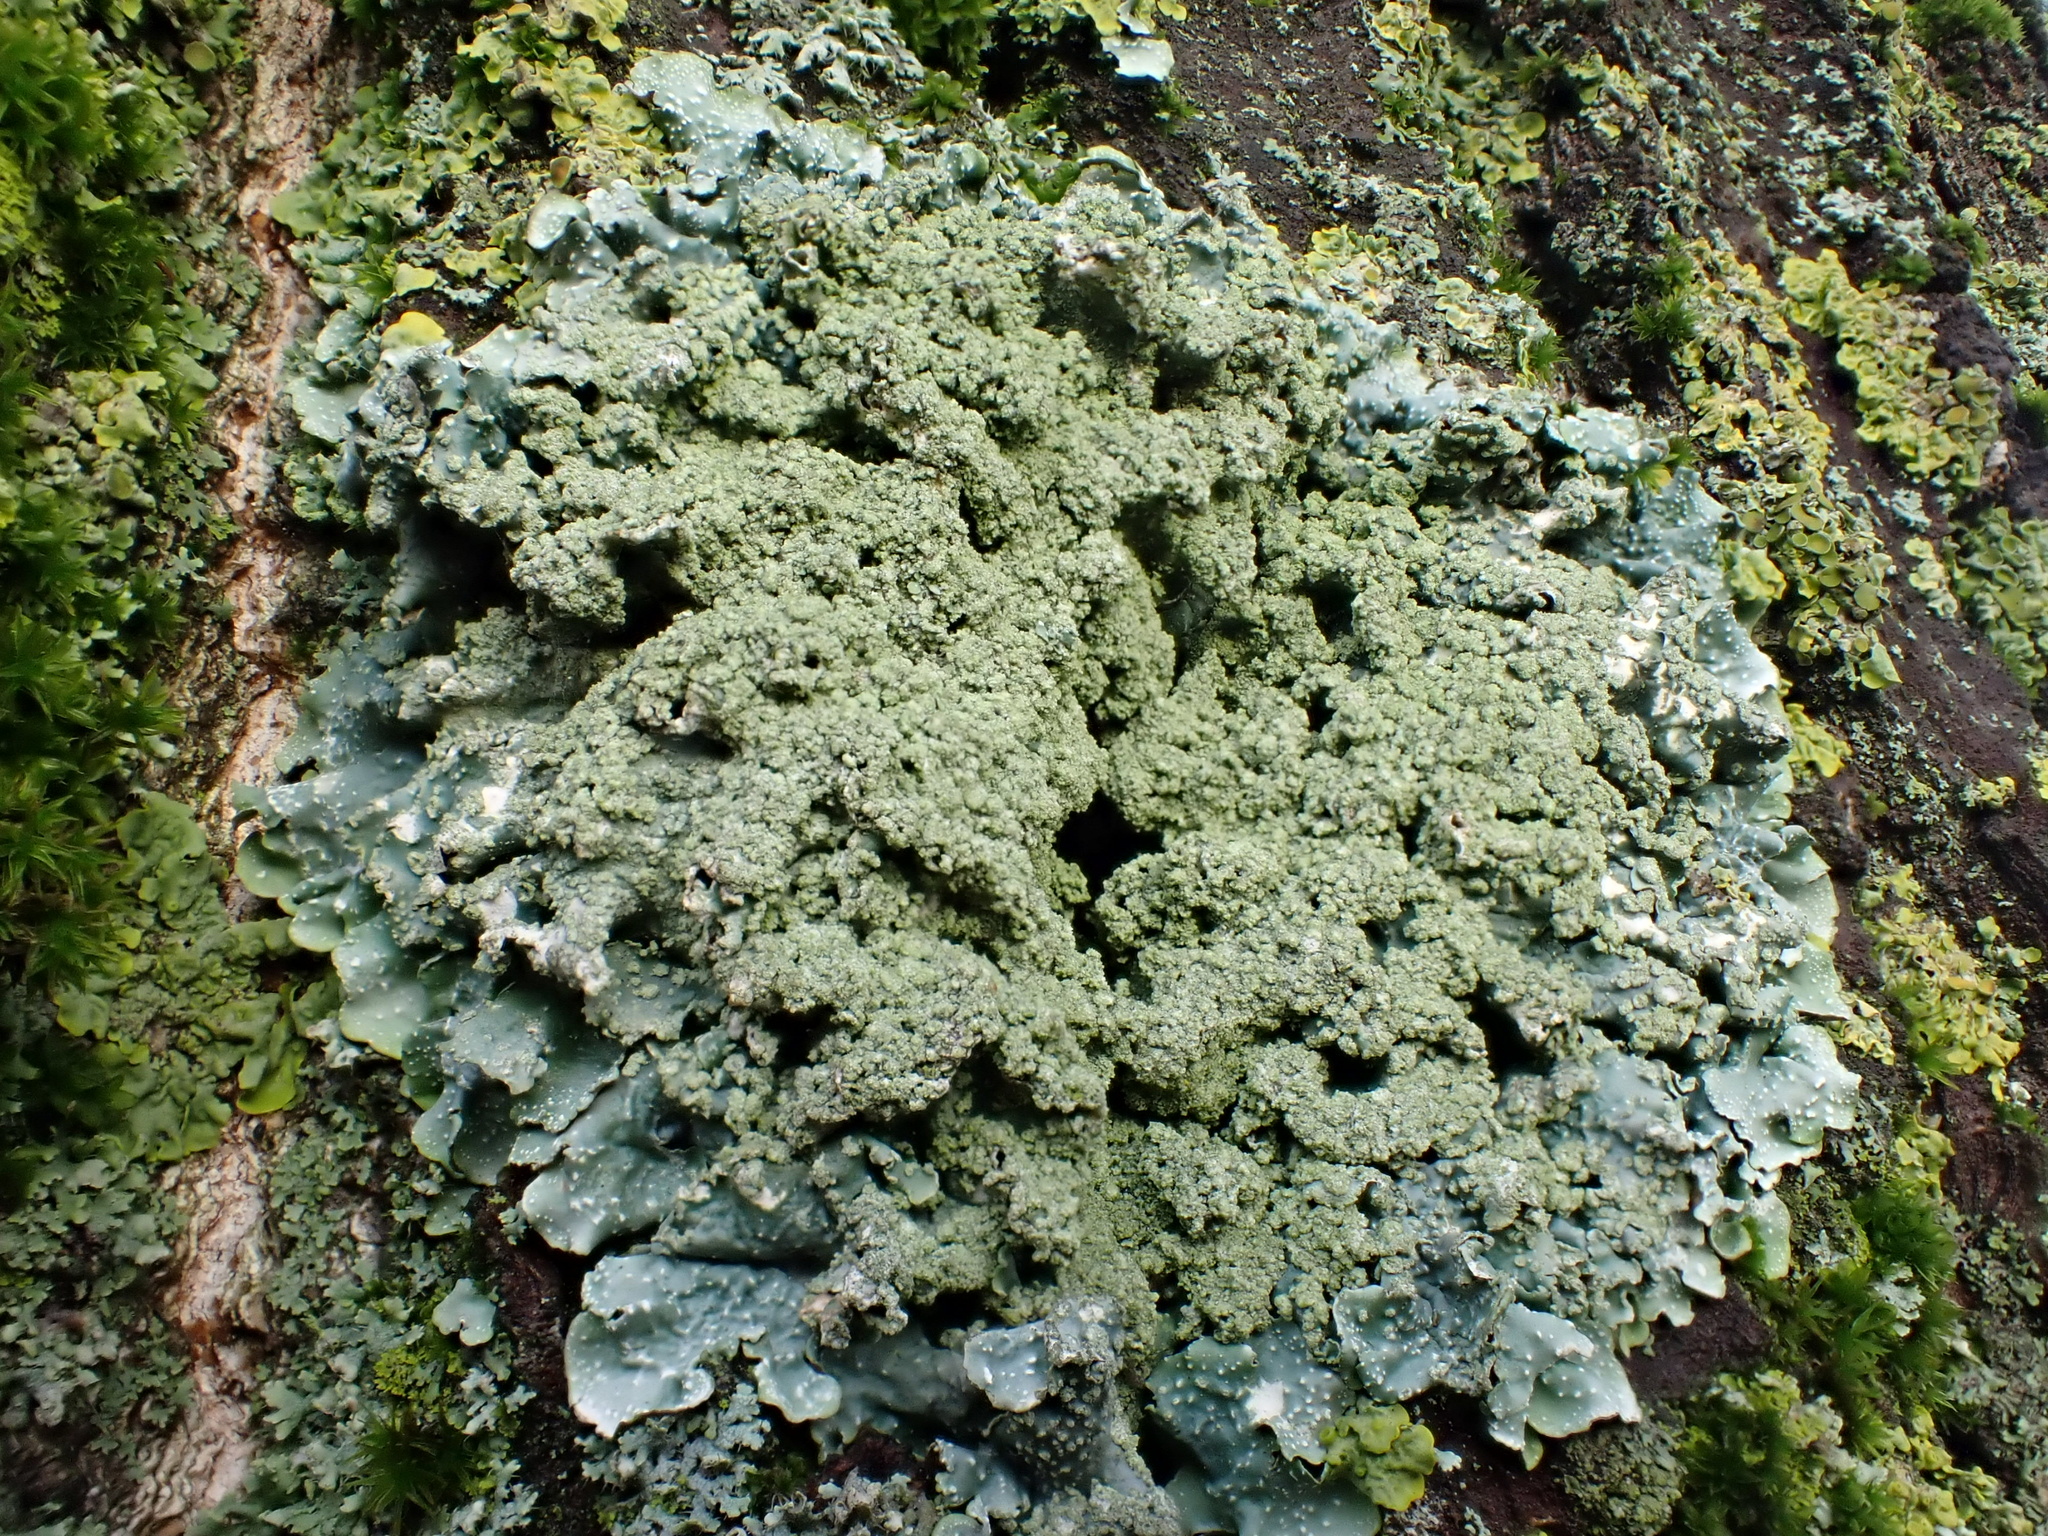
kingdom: Fungi
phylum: Ascomycota
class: Lecanoromycetes
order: Lecanorales
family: Parmeliaceae
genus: Punctelia
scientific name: Punctelia subrudecta
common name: Powdered speckled shield lichen
